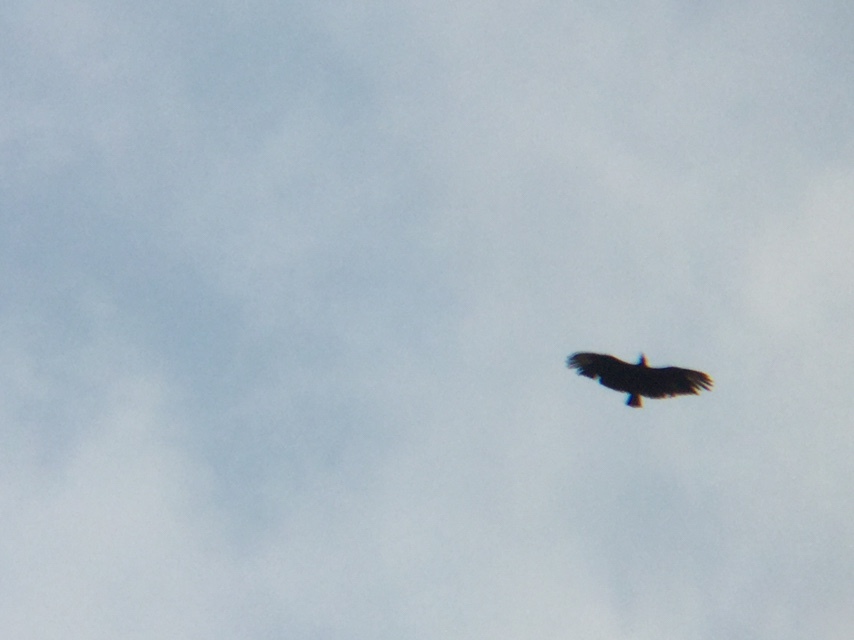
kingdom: Animalia
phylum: Chordata
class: Aves
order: Accipitriformes
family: Cathartidae
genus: Coragyps
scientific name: Coragyps atratus
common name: Black vulture
